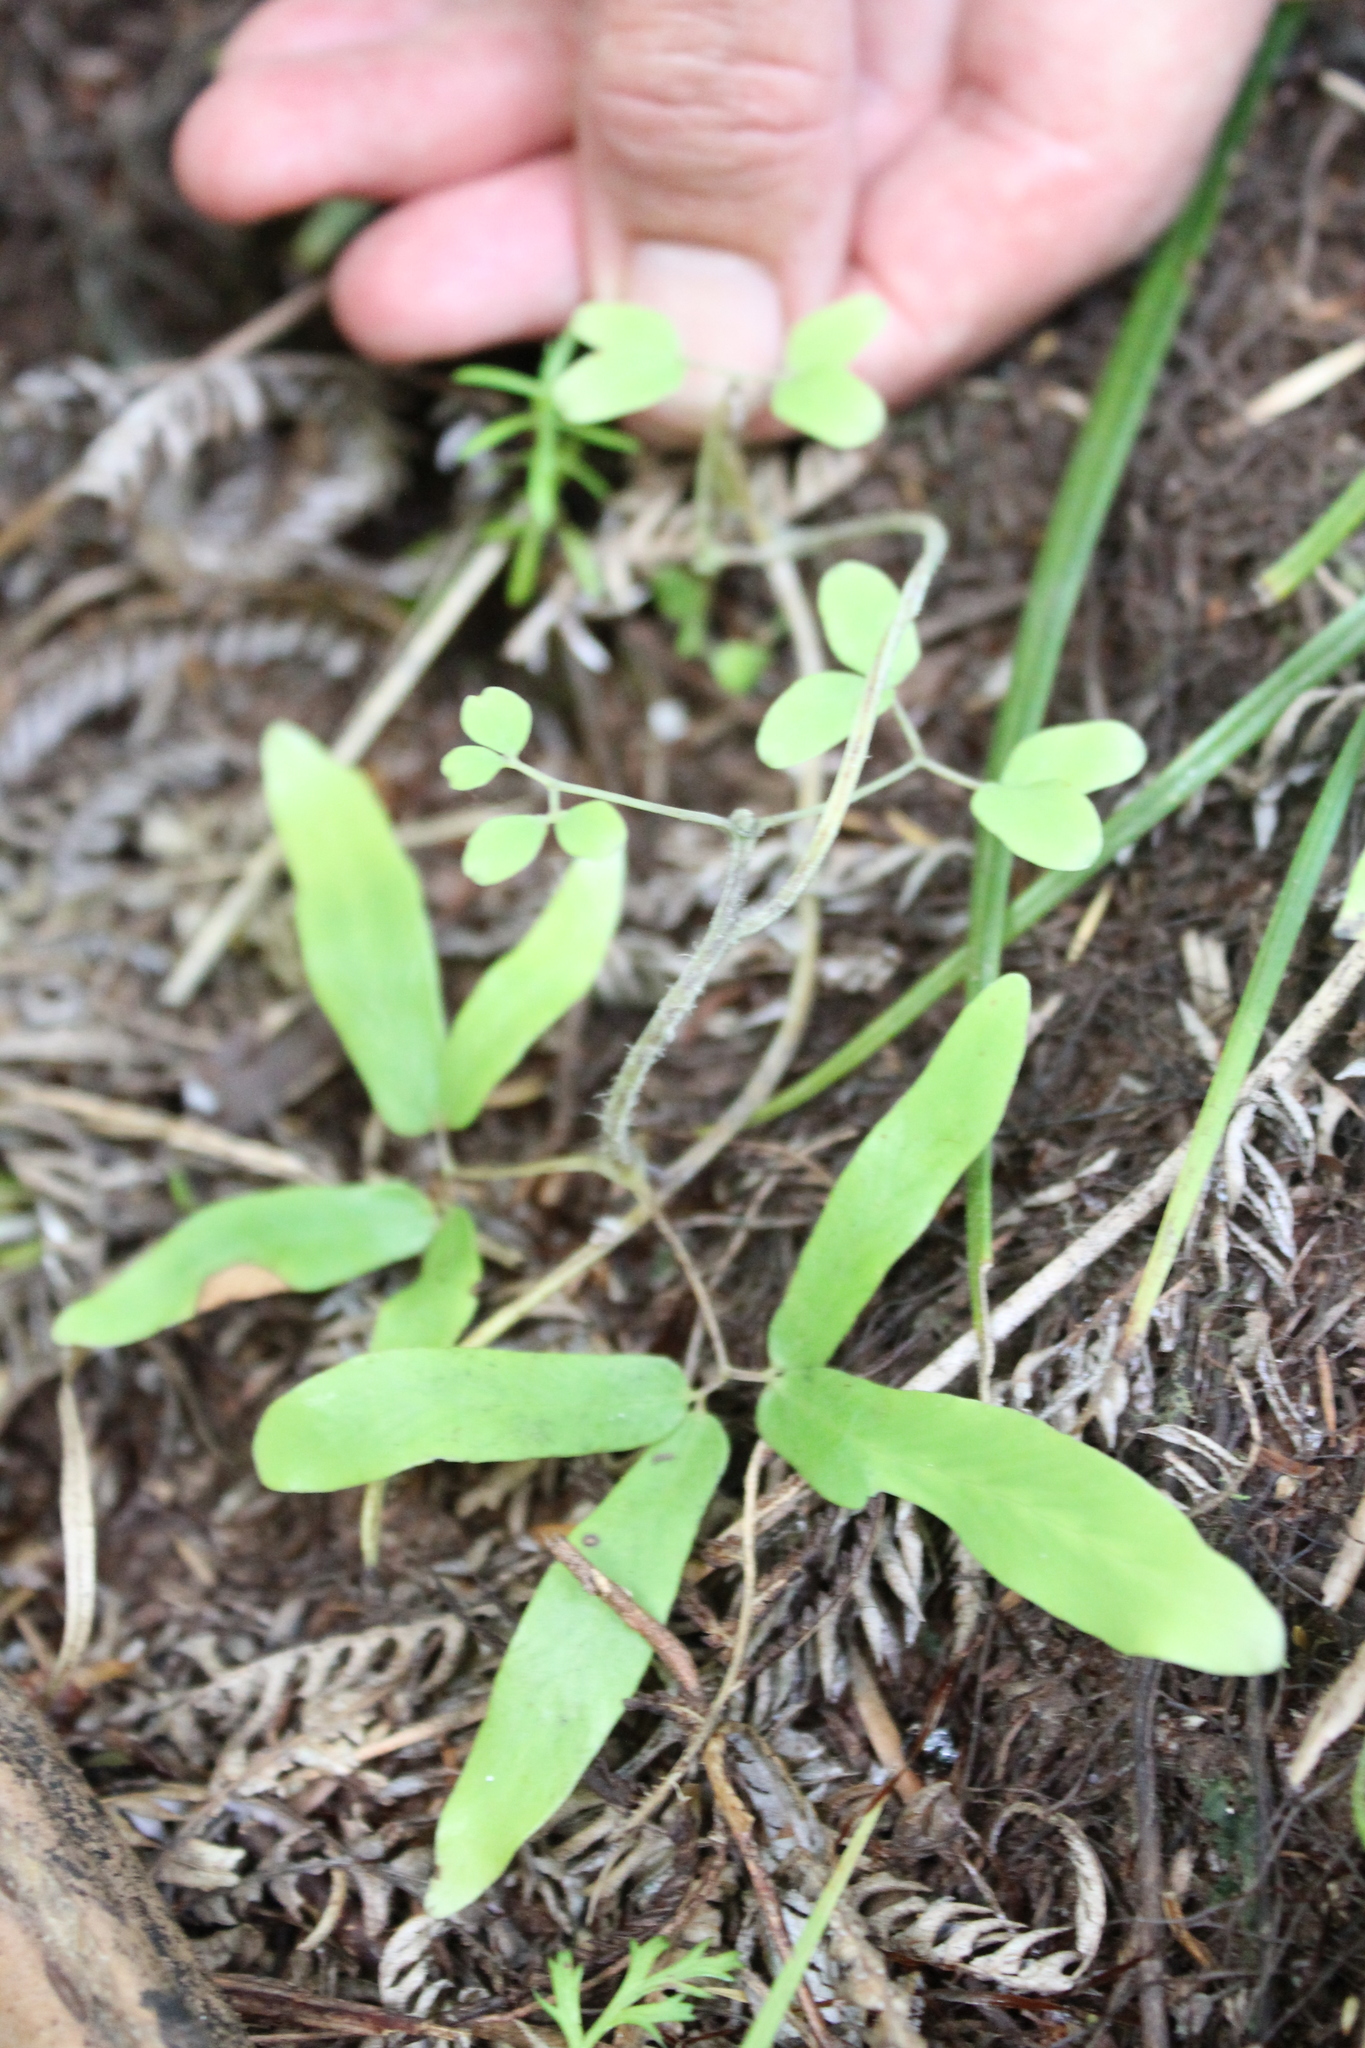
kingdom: Plantae
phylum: Tracheophyta
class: Polypodiopsida
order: Schizaeales
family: Lygodiaceae
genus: Lygodium
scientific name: Lygodium articulatum
